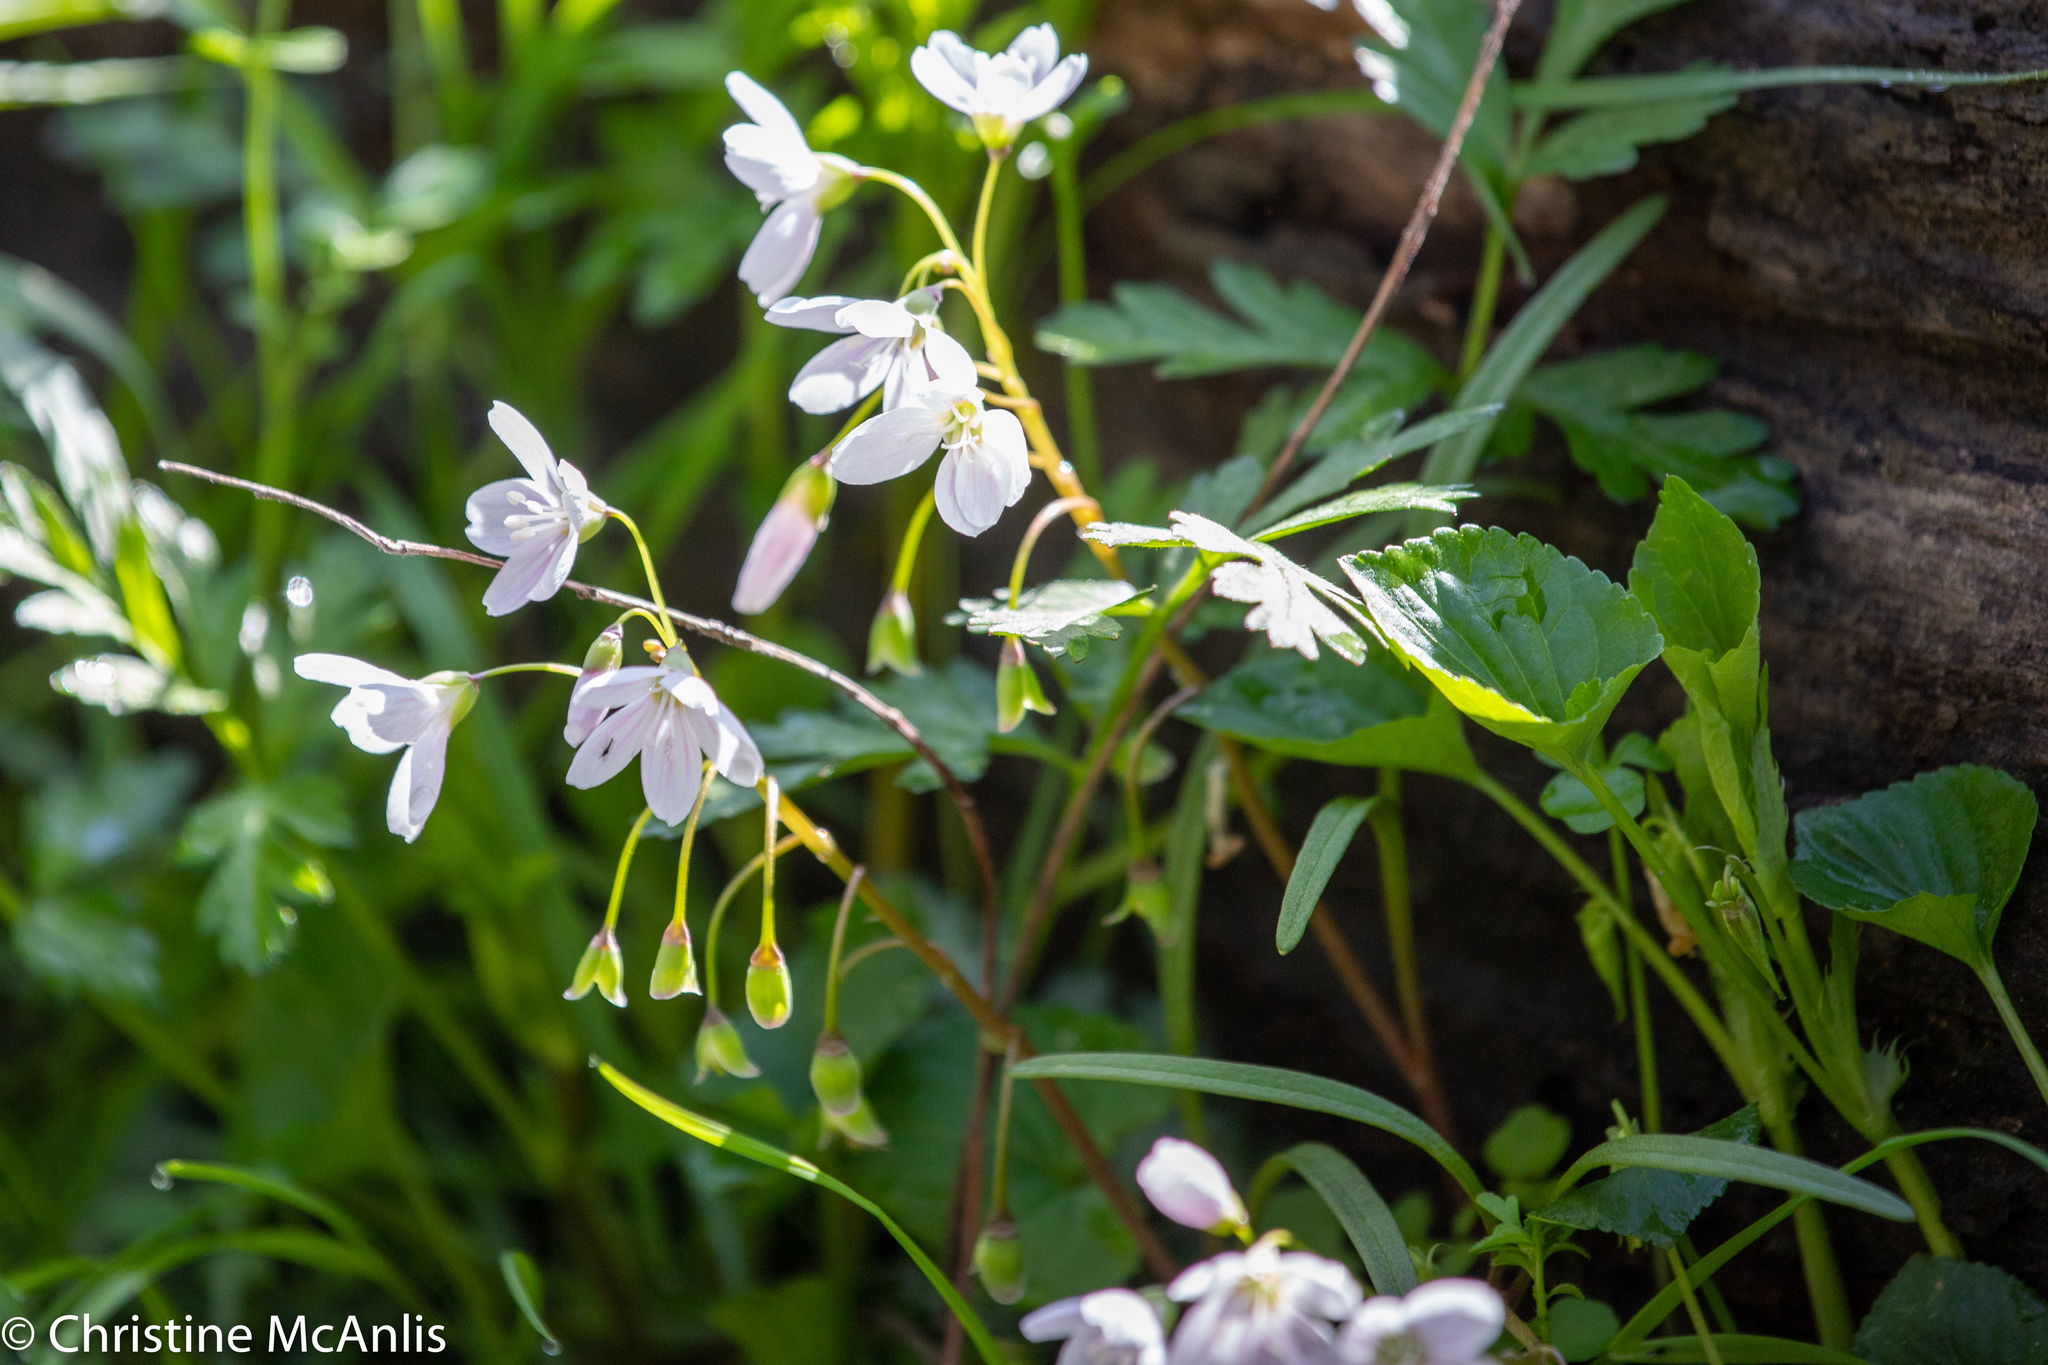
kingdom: Plantae
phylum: Tracheophyta
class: Magnoliopsida
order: Caryophyllales
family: Montiaceae
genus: Claytonia
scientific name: Claytonia virginica
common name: Virginia springbeauty
